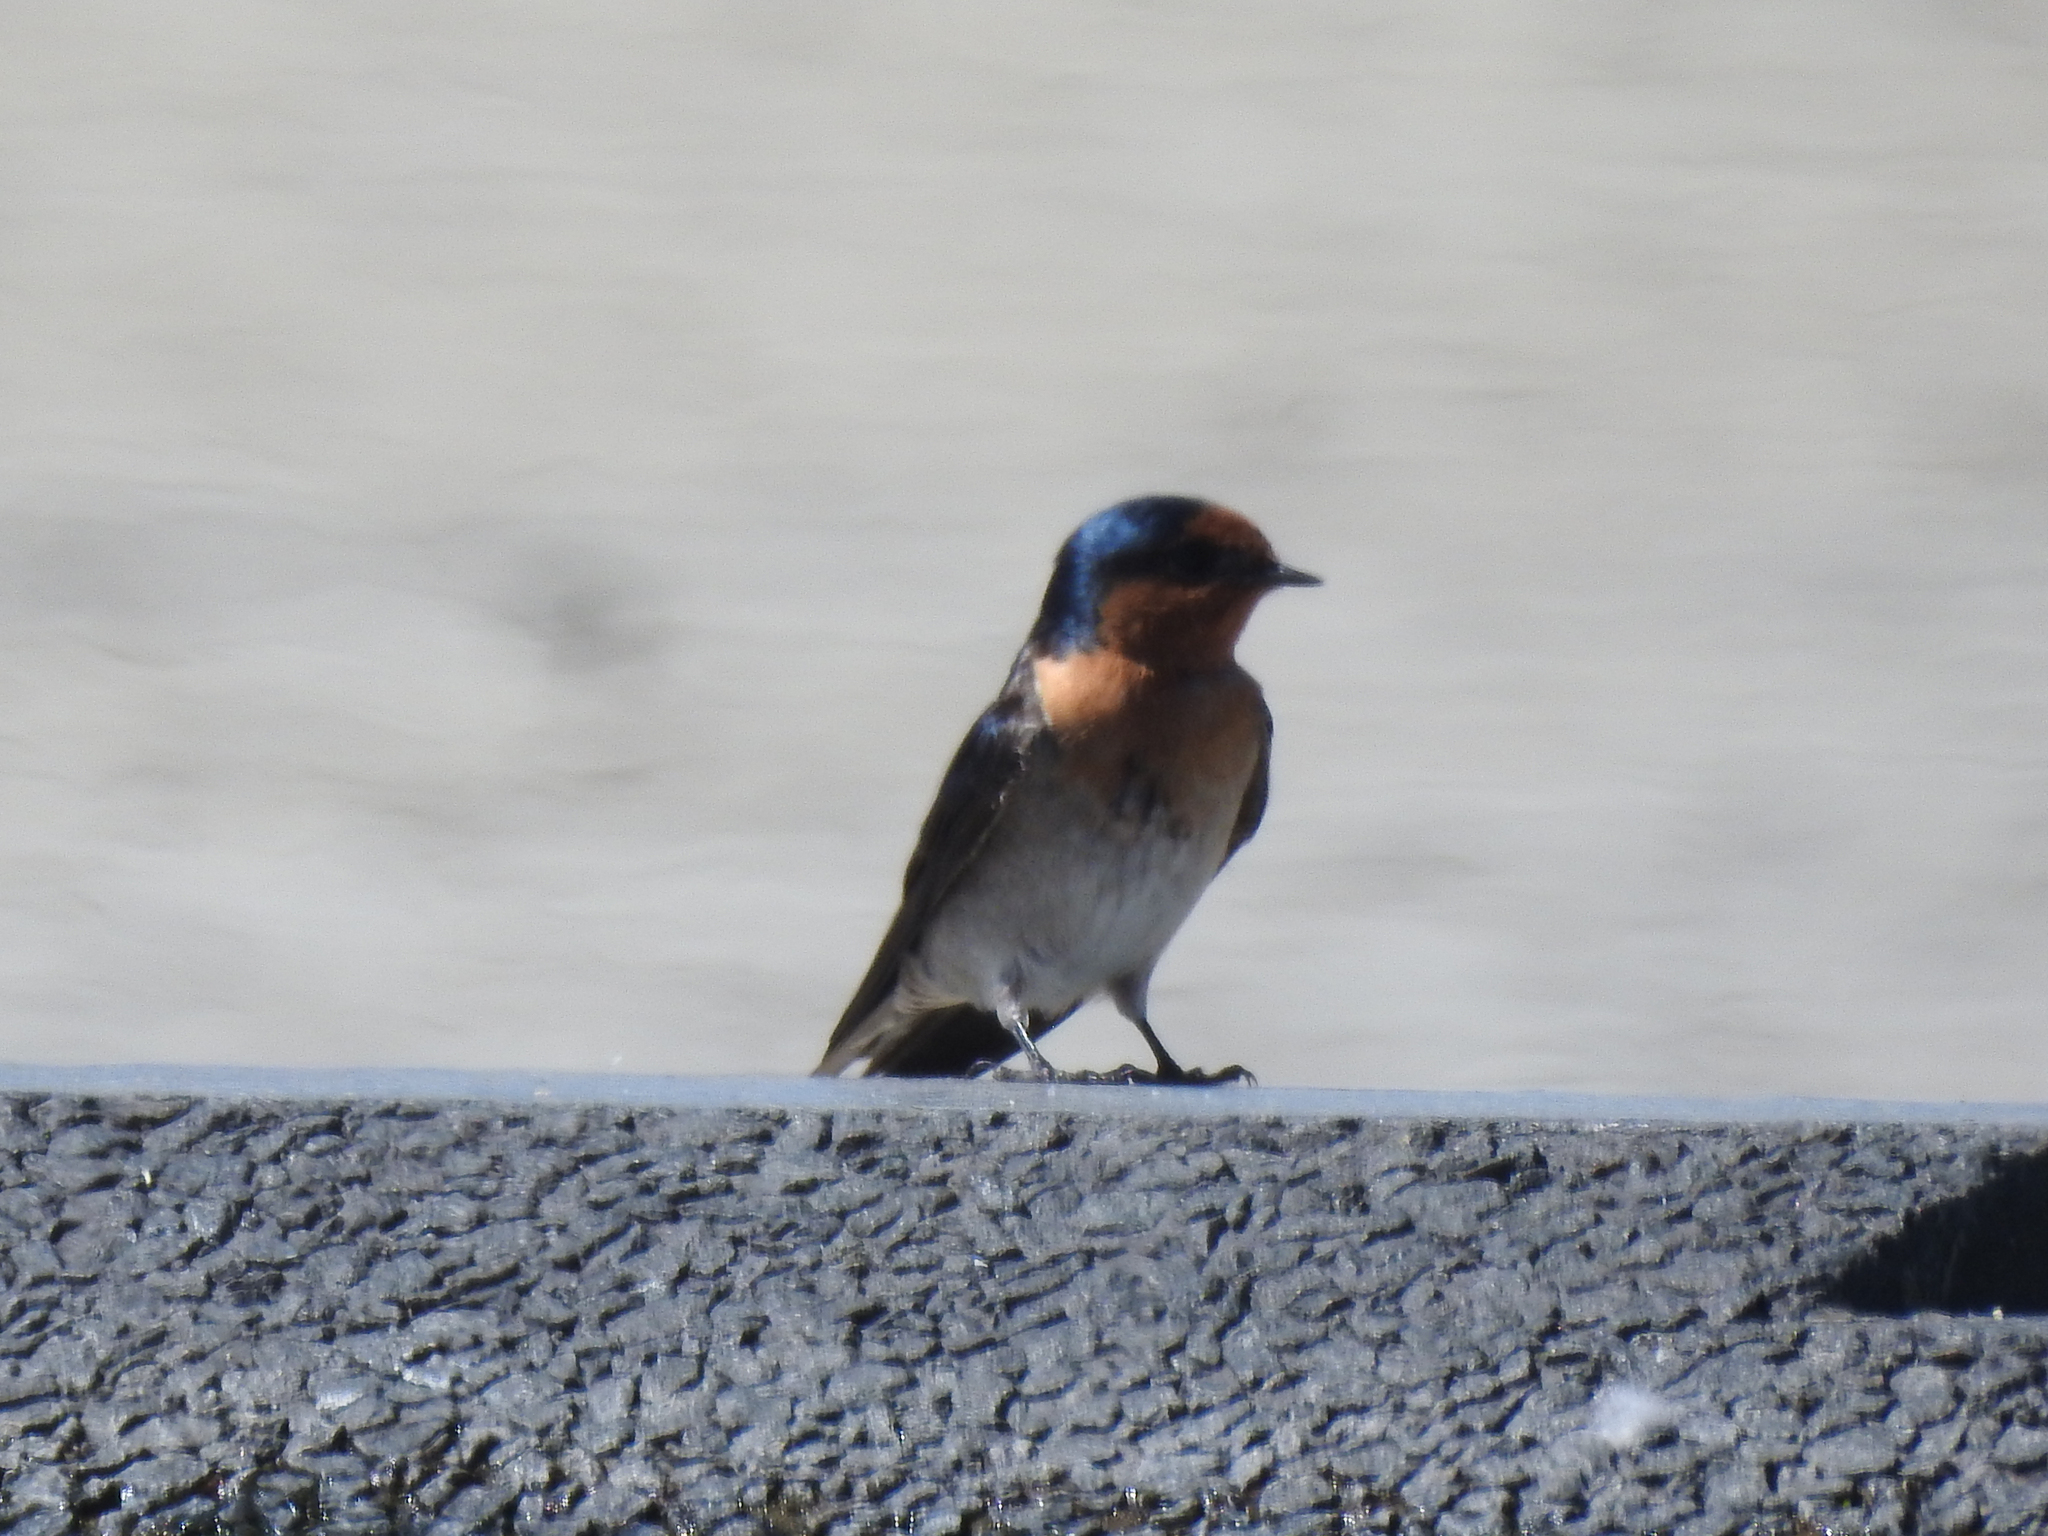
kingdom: Animalia
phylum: Chordata
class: Aves
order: Passeriformes
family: Hirundinidae
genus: Hirundo
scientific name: Hirundo neoxena
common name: Welcome swallow
